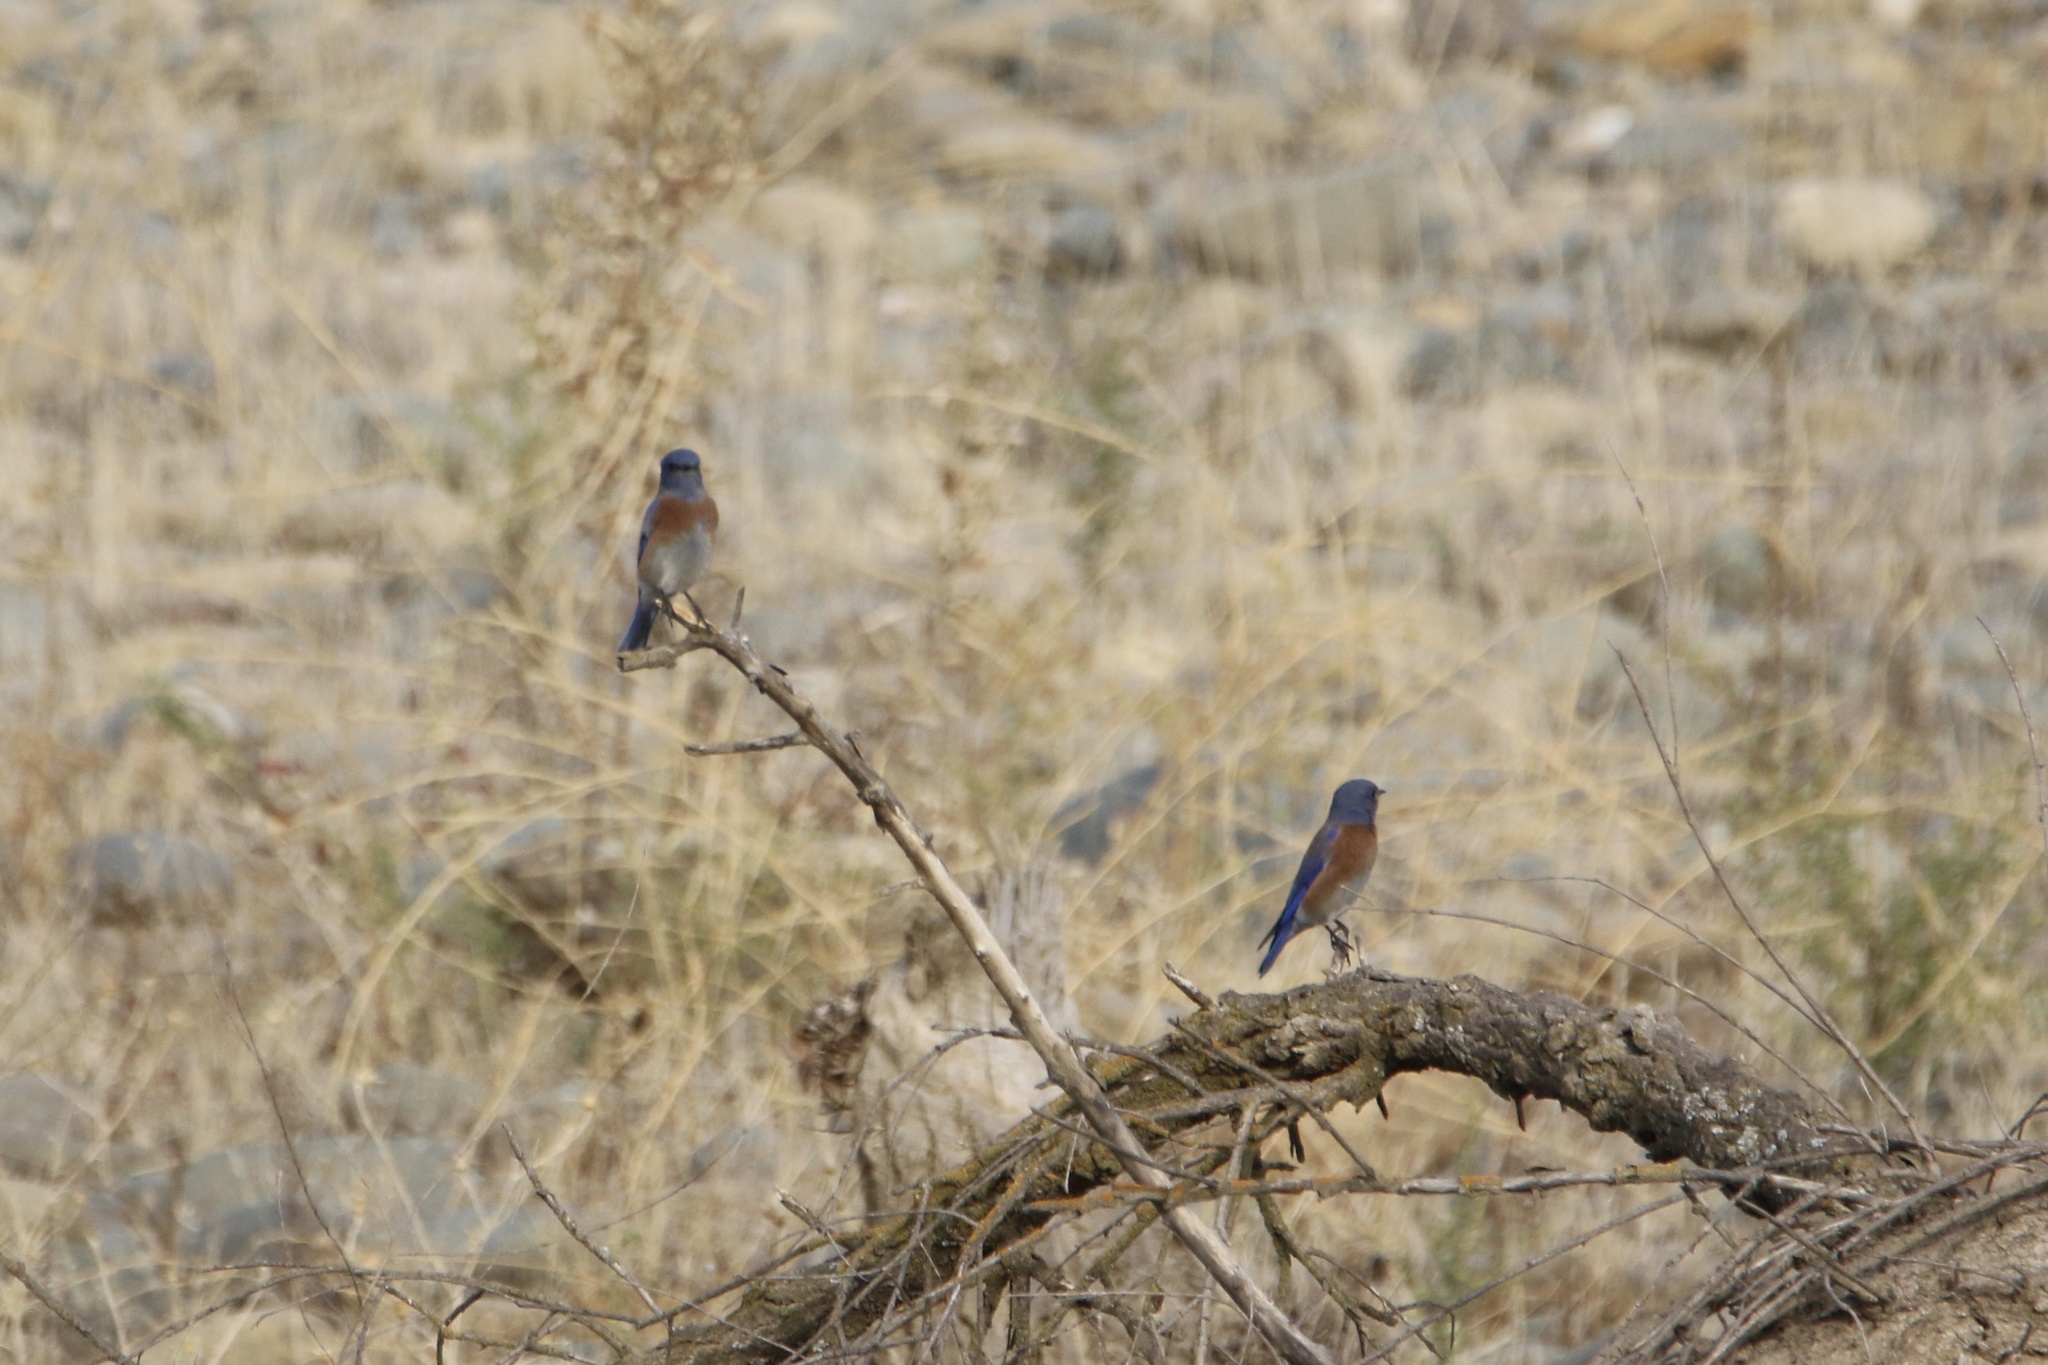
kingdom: Animalia
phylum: Chordata
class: Aves
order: Passeriformes
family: Turdidae
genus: Sialia
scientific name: Sialia mexicana
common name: Western bluebird
